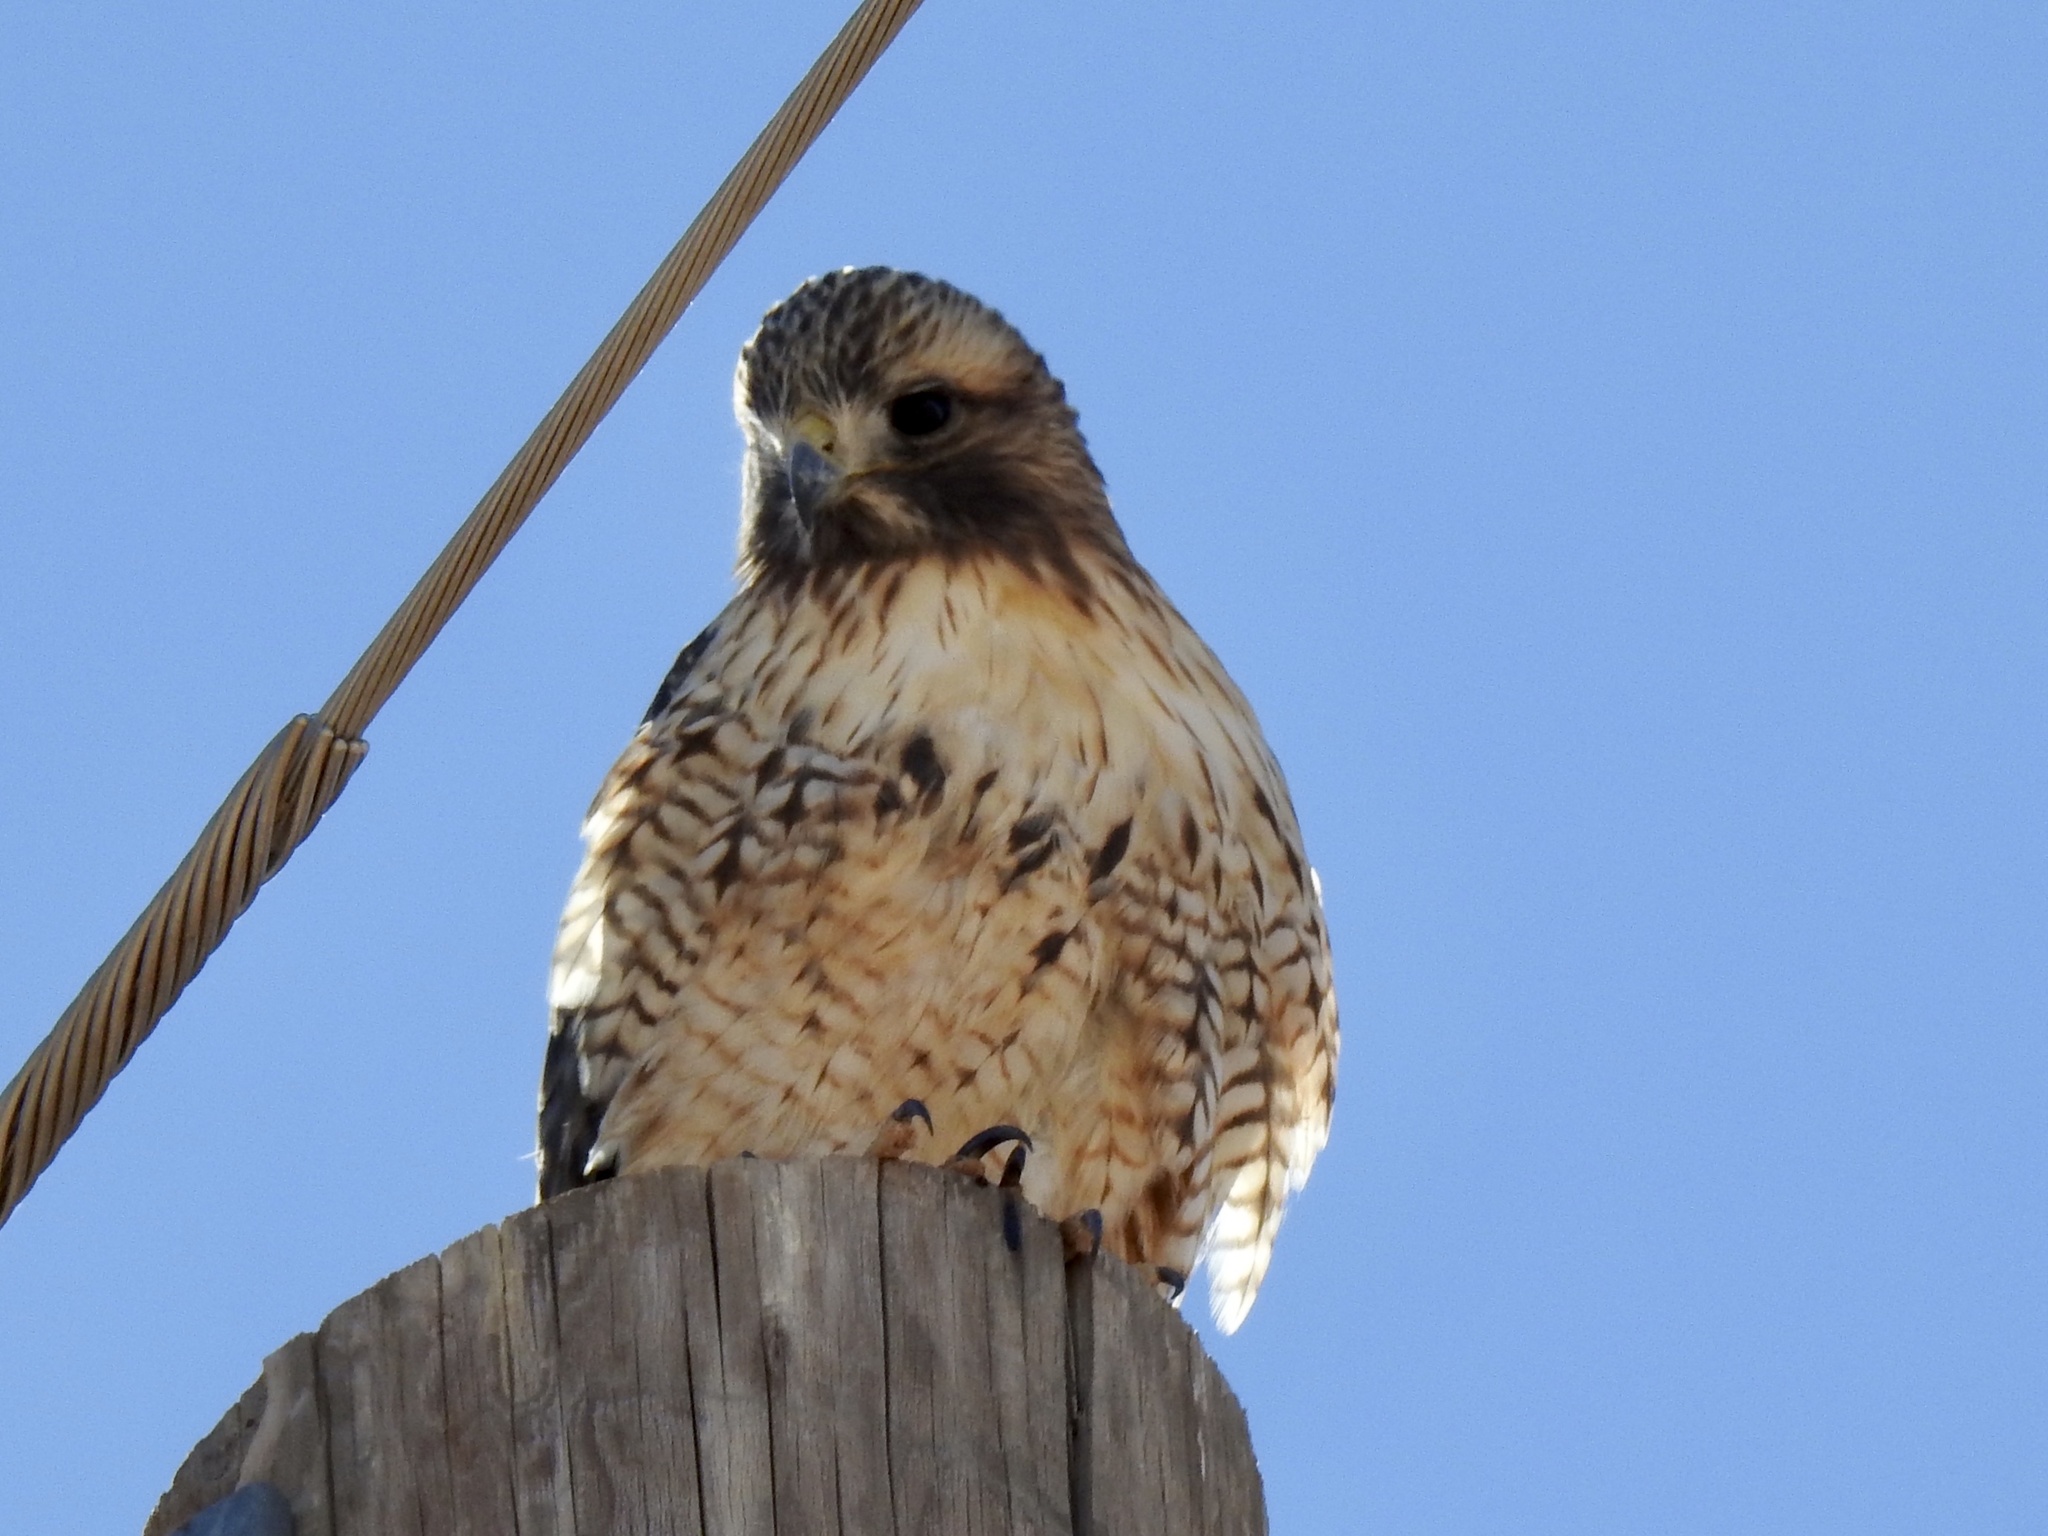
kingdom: Animalia
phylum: Chordata
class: Aves
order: Accipitriformes
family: Accipitridae
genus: Buteo
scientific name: Buteo jamaicensis
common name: Red-tailed hawk
